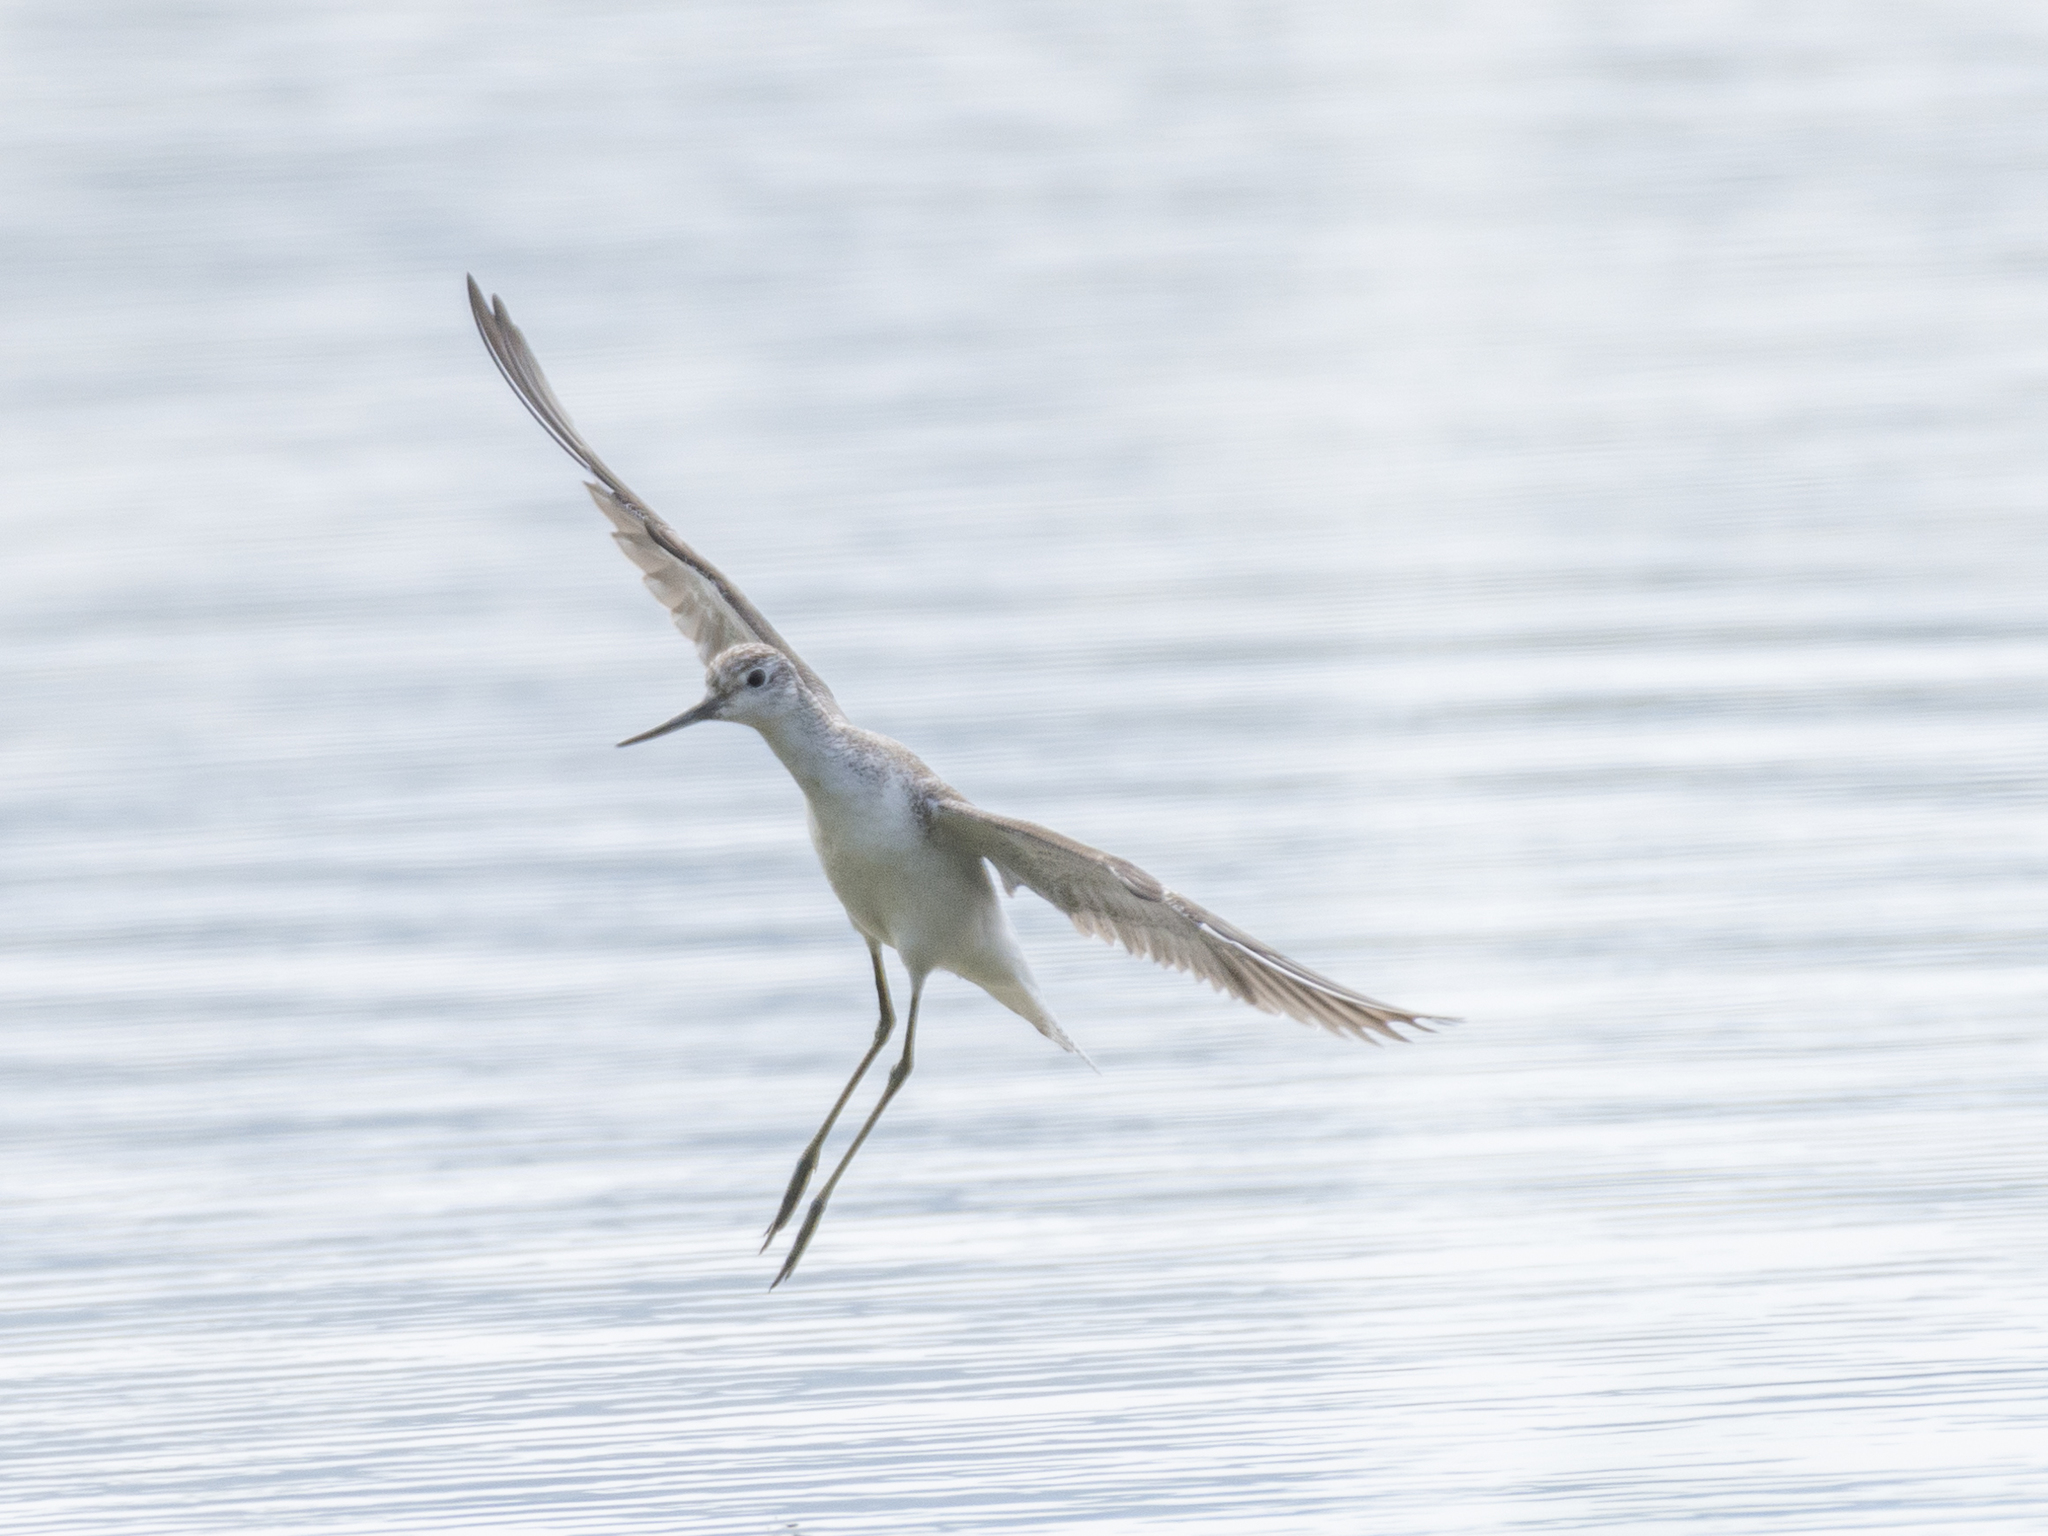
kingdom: Animalia
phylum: Chordata
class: Aves
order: Charadriiformes
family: Scolopacidae
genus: Tringa
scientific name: Tringa nebularia
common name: Common greenshank
